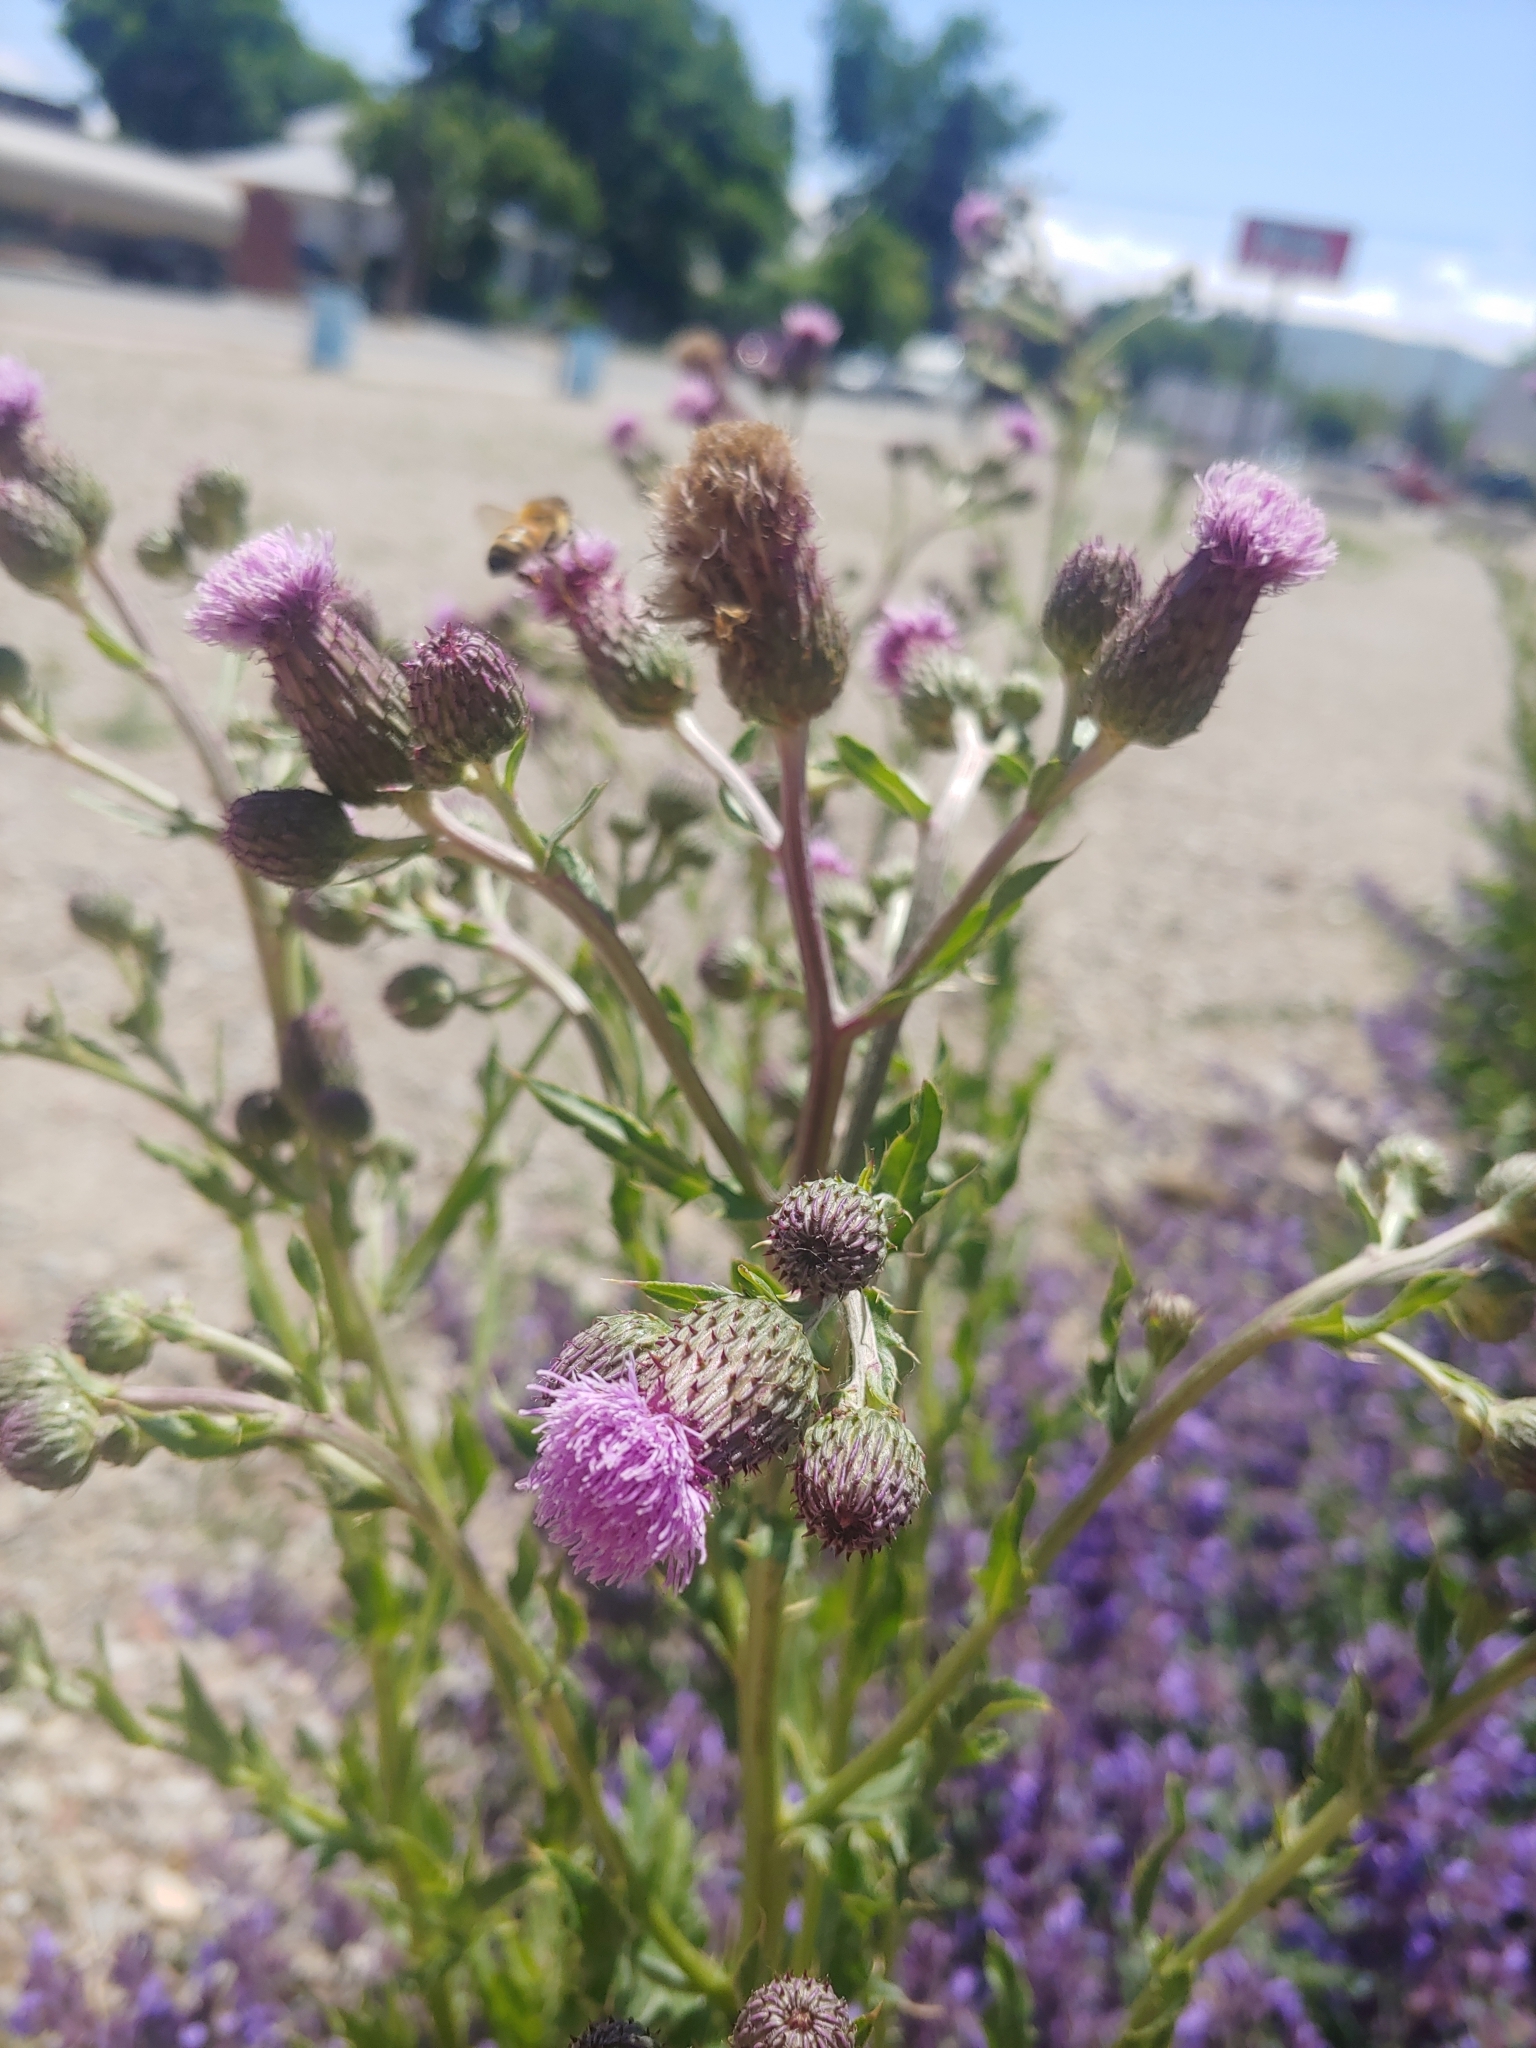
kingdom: Plantae
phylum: Tracheophyta
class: Magnoliopsida
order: Asterales
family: Asteraceae
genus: Cirsium
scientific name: Cirsium arvense
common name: Creeping thistle
